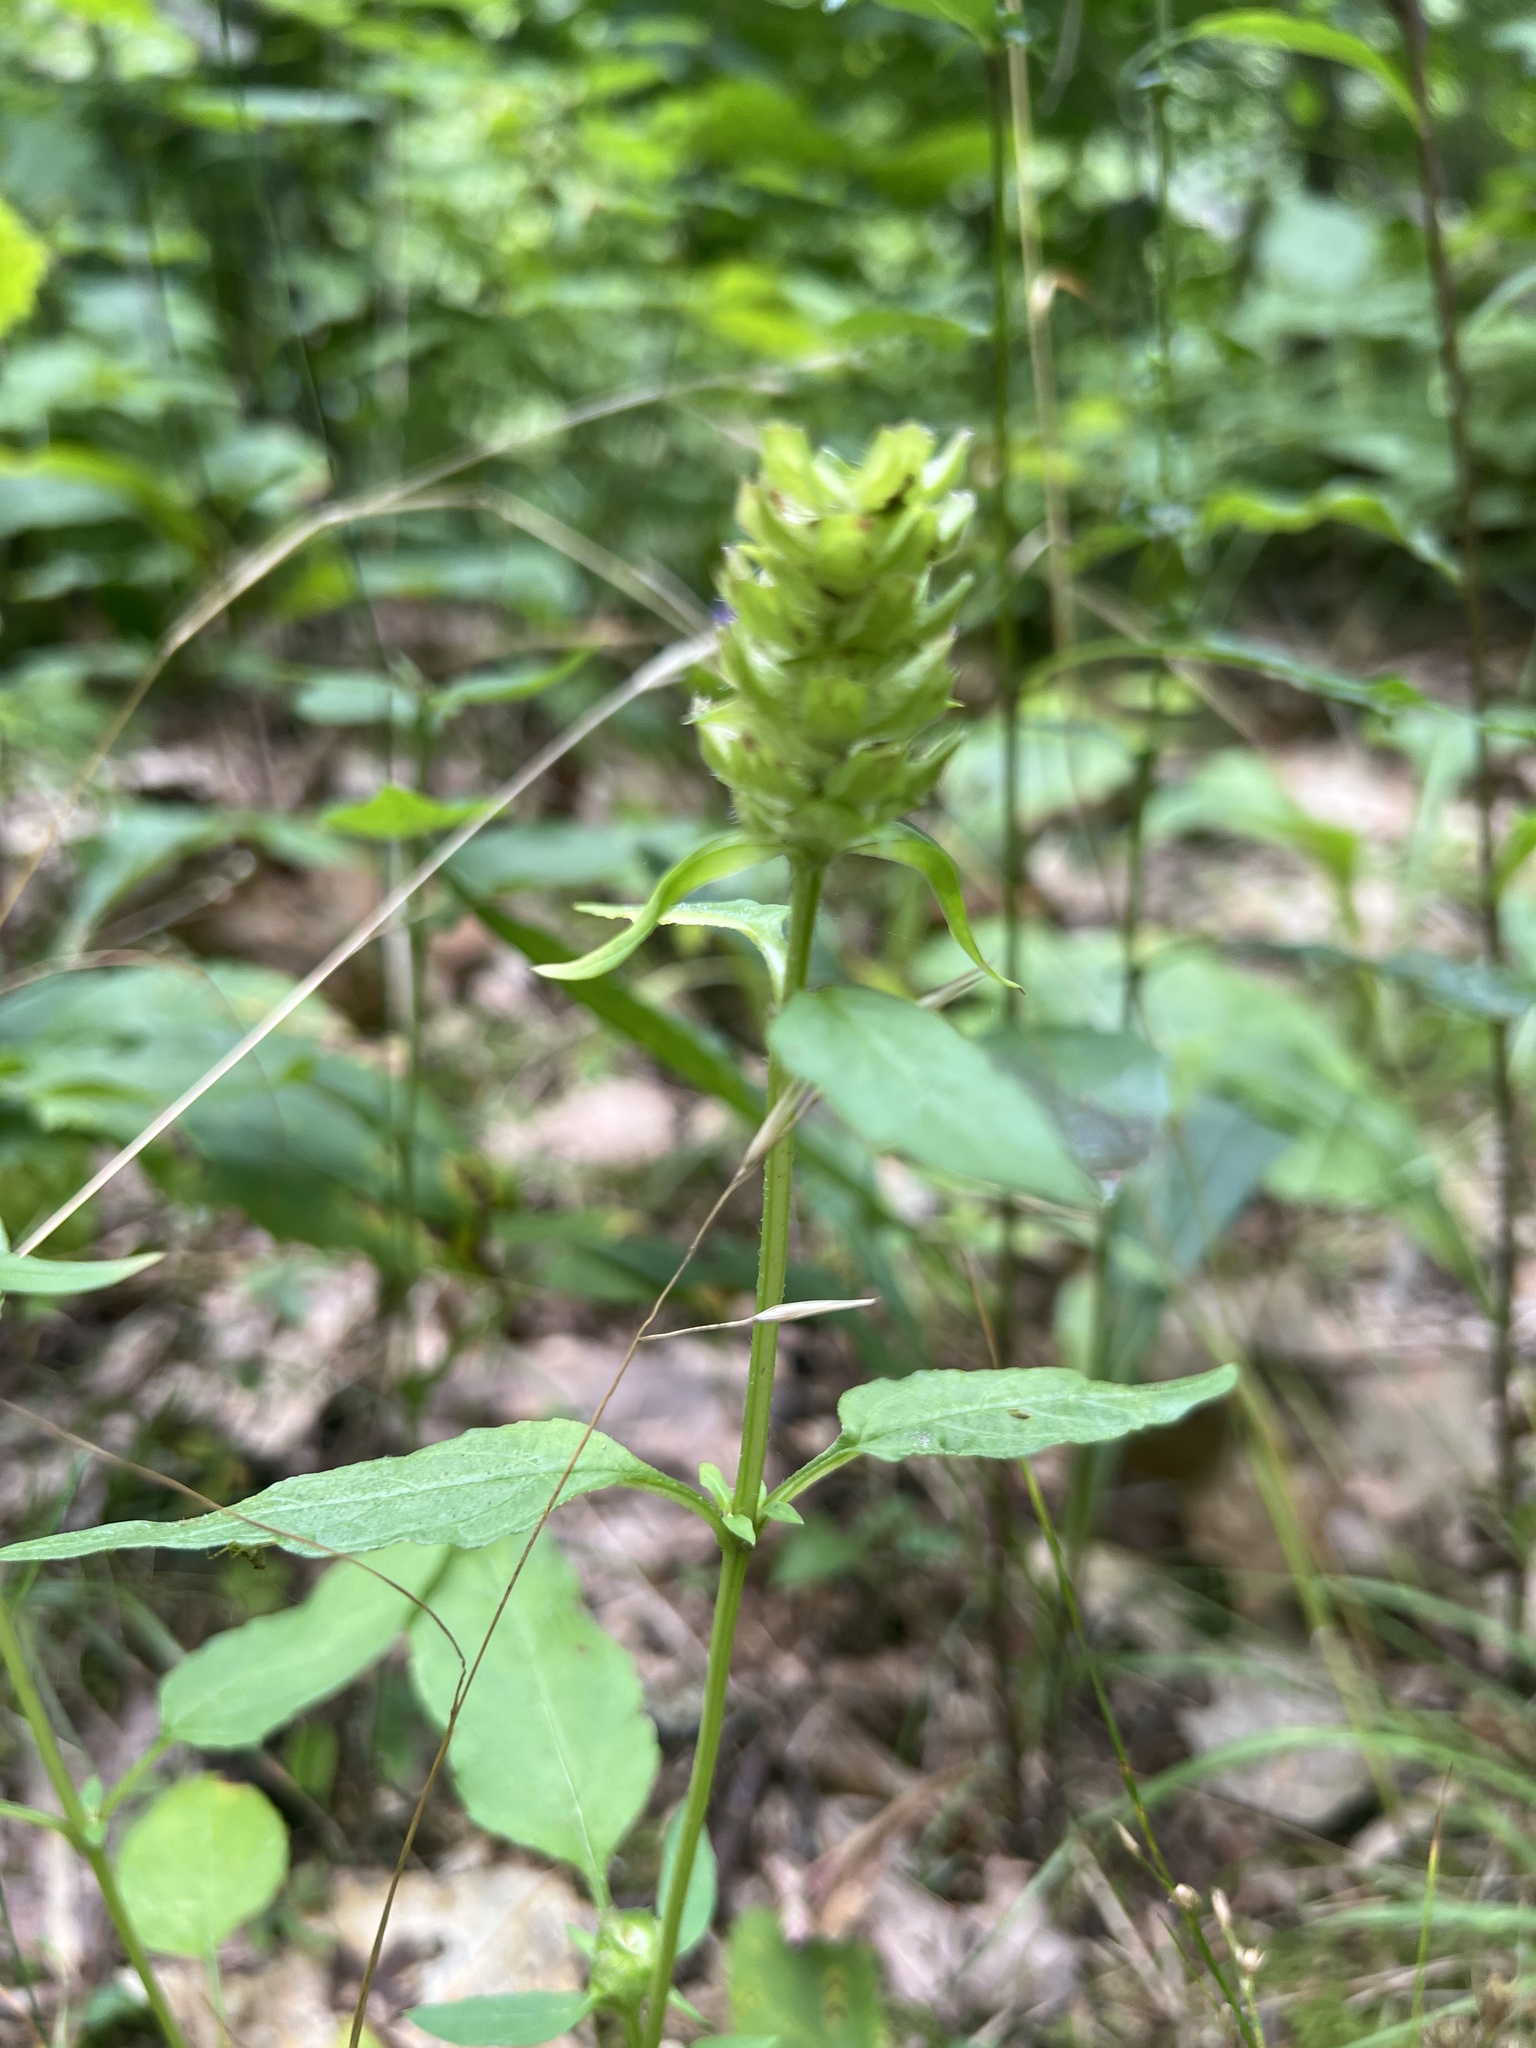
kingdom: Plantae
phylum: Tracheophyta
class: Magnoliopsida
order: Lamiales
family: Lamiaceae
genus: Prunella
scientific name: Prunella vulgaris
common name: Heal-all
